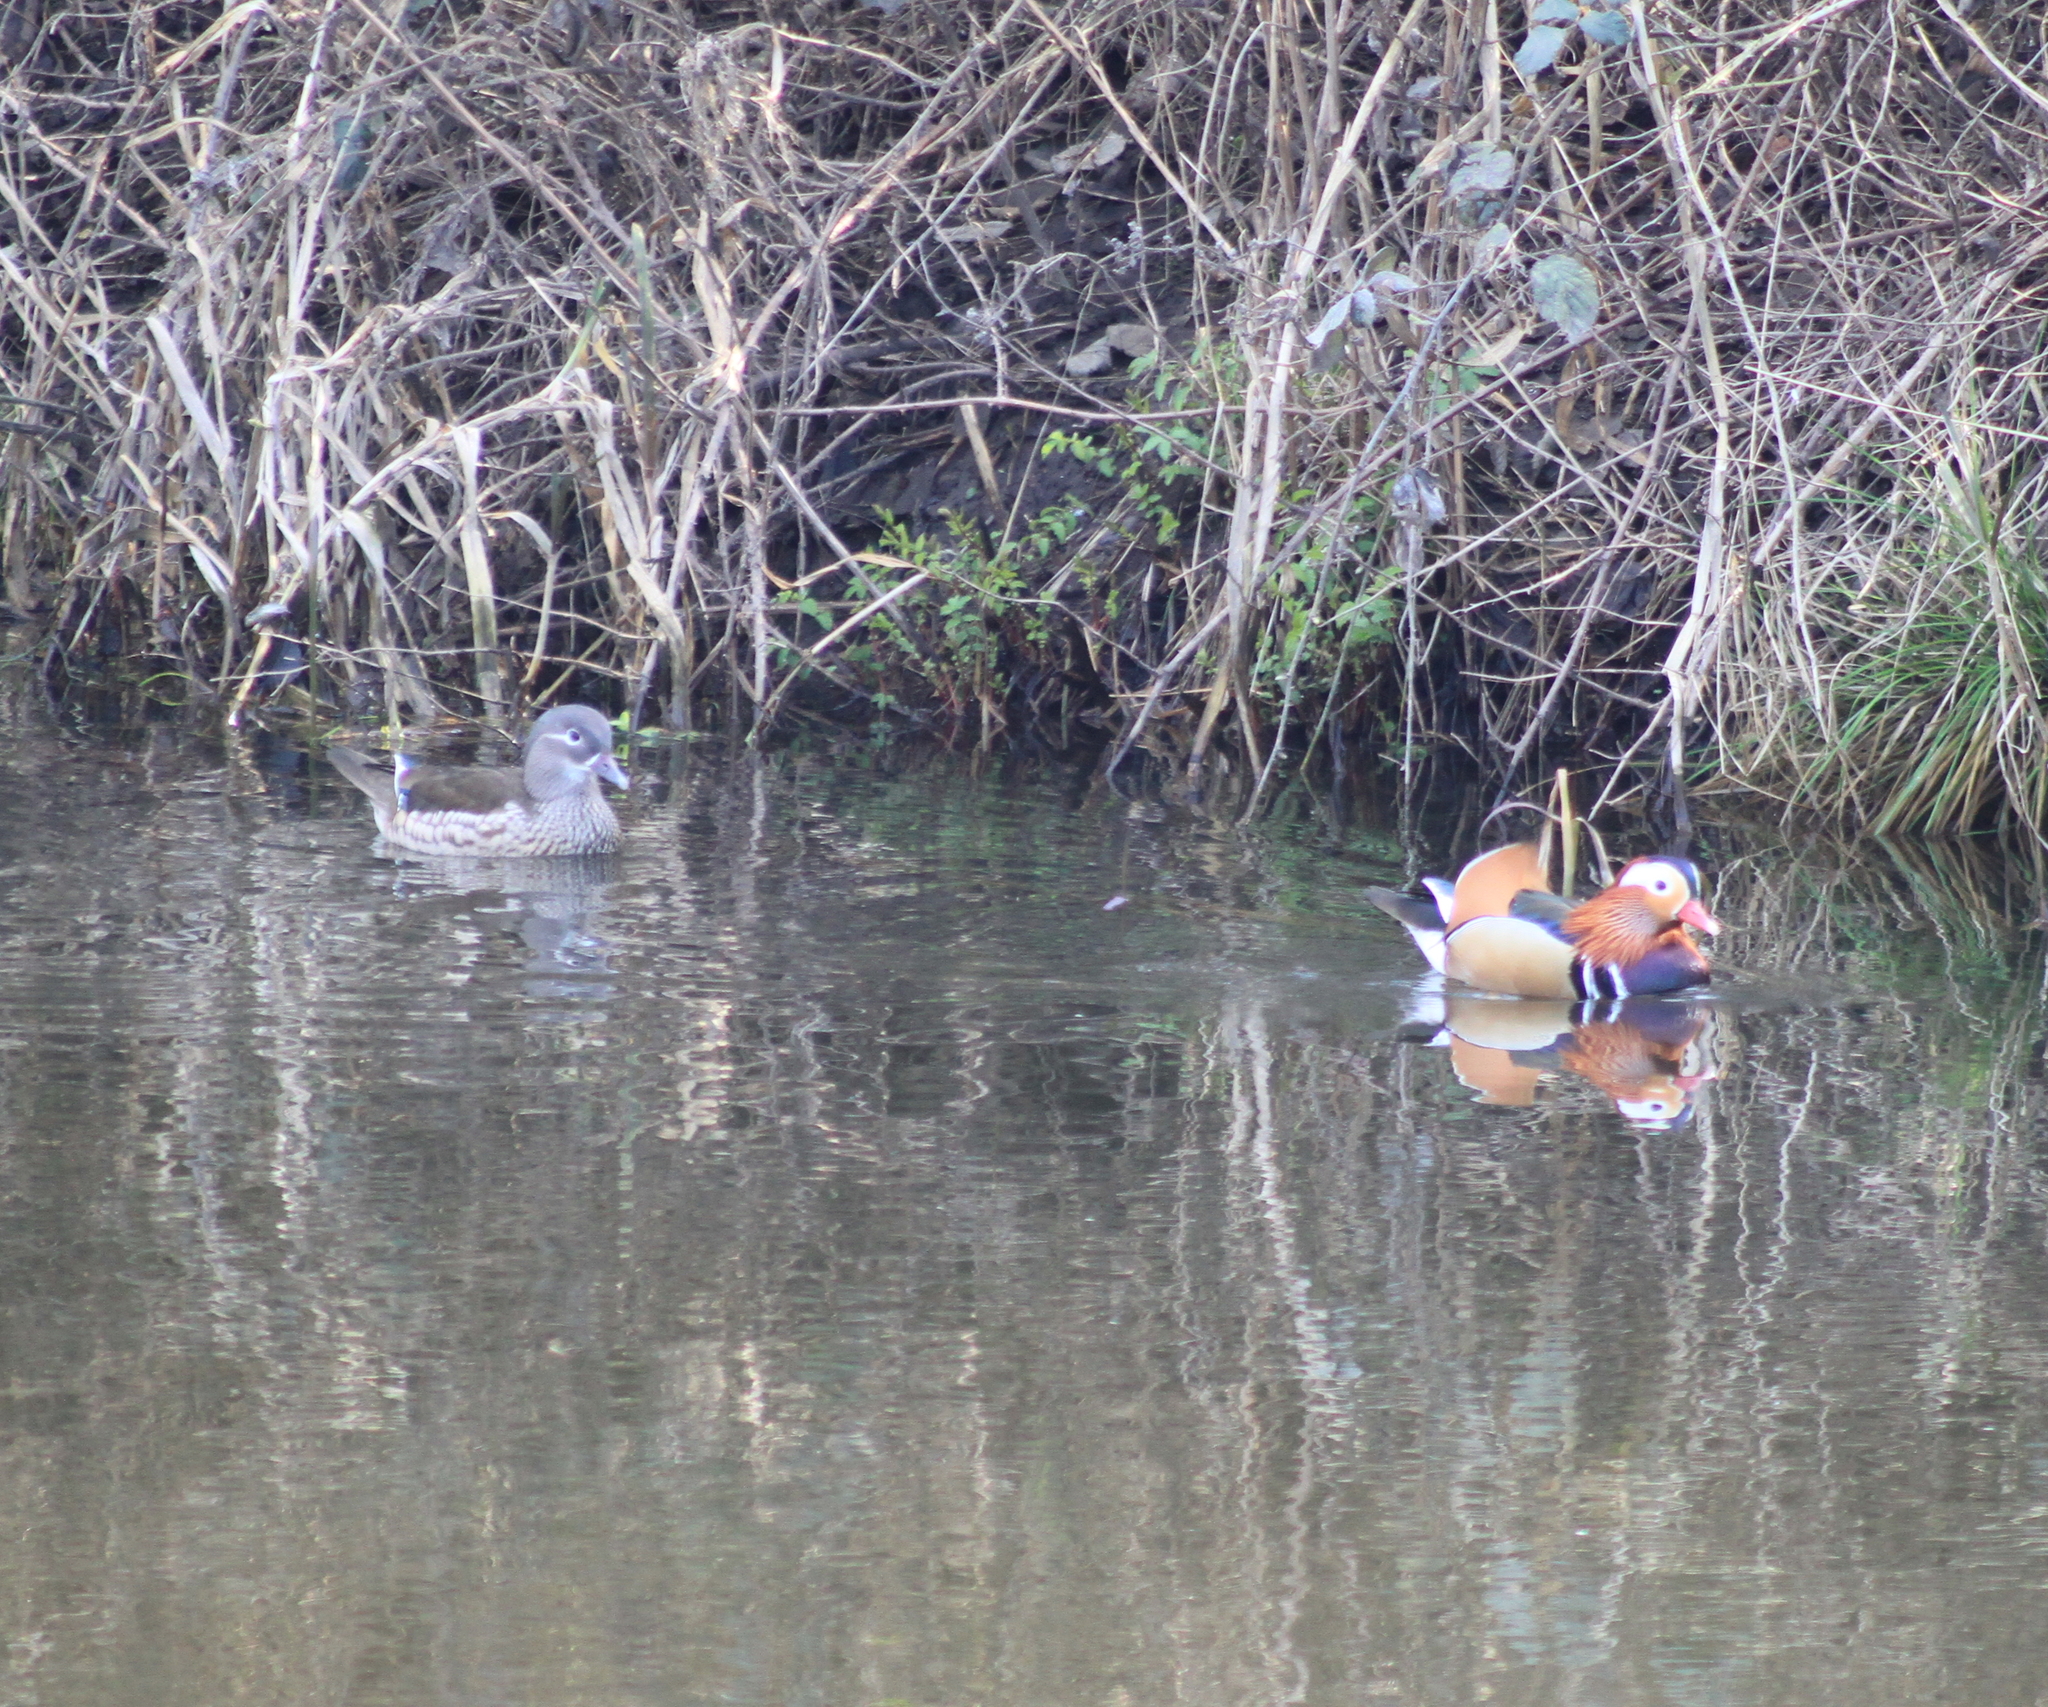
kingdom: Animalia
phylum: Chordata
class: Aves
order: Anseriformes
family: Anatidae
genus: Aix
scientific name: Aix galericulata
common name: Mandarin duck
